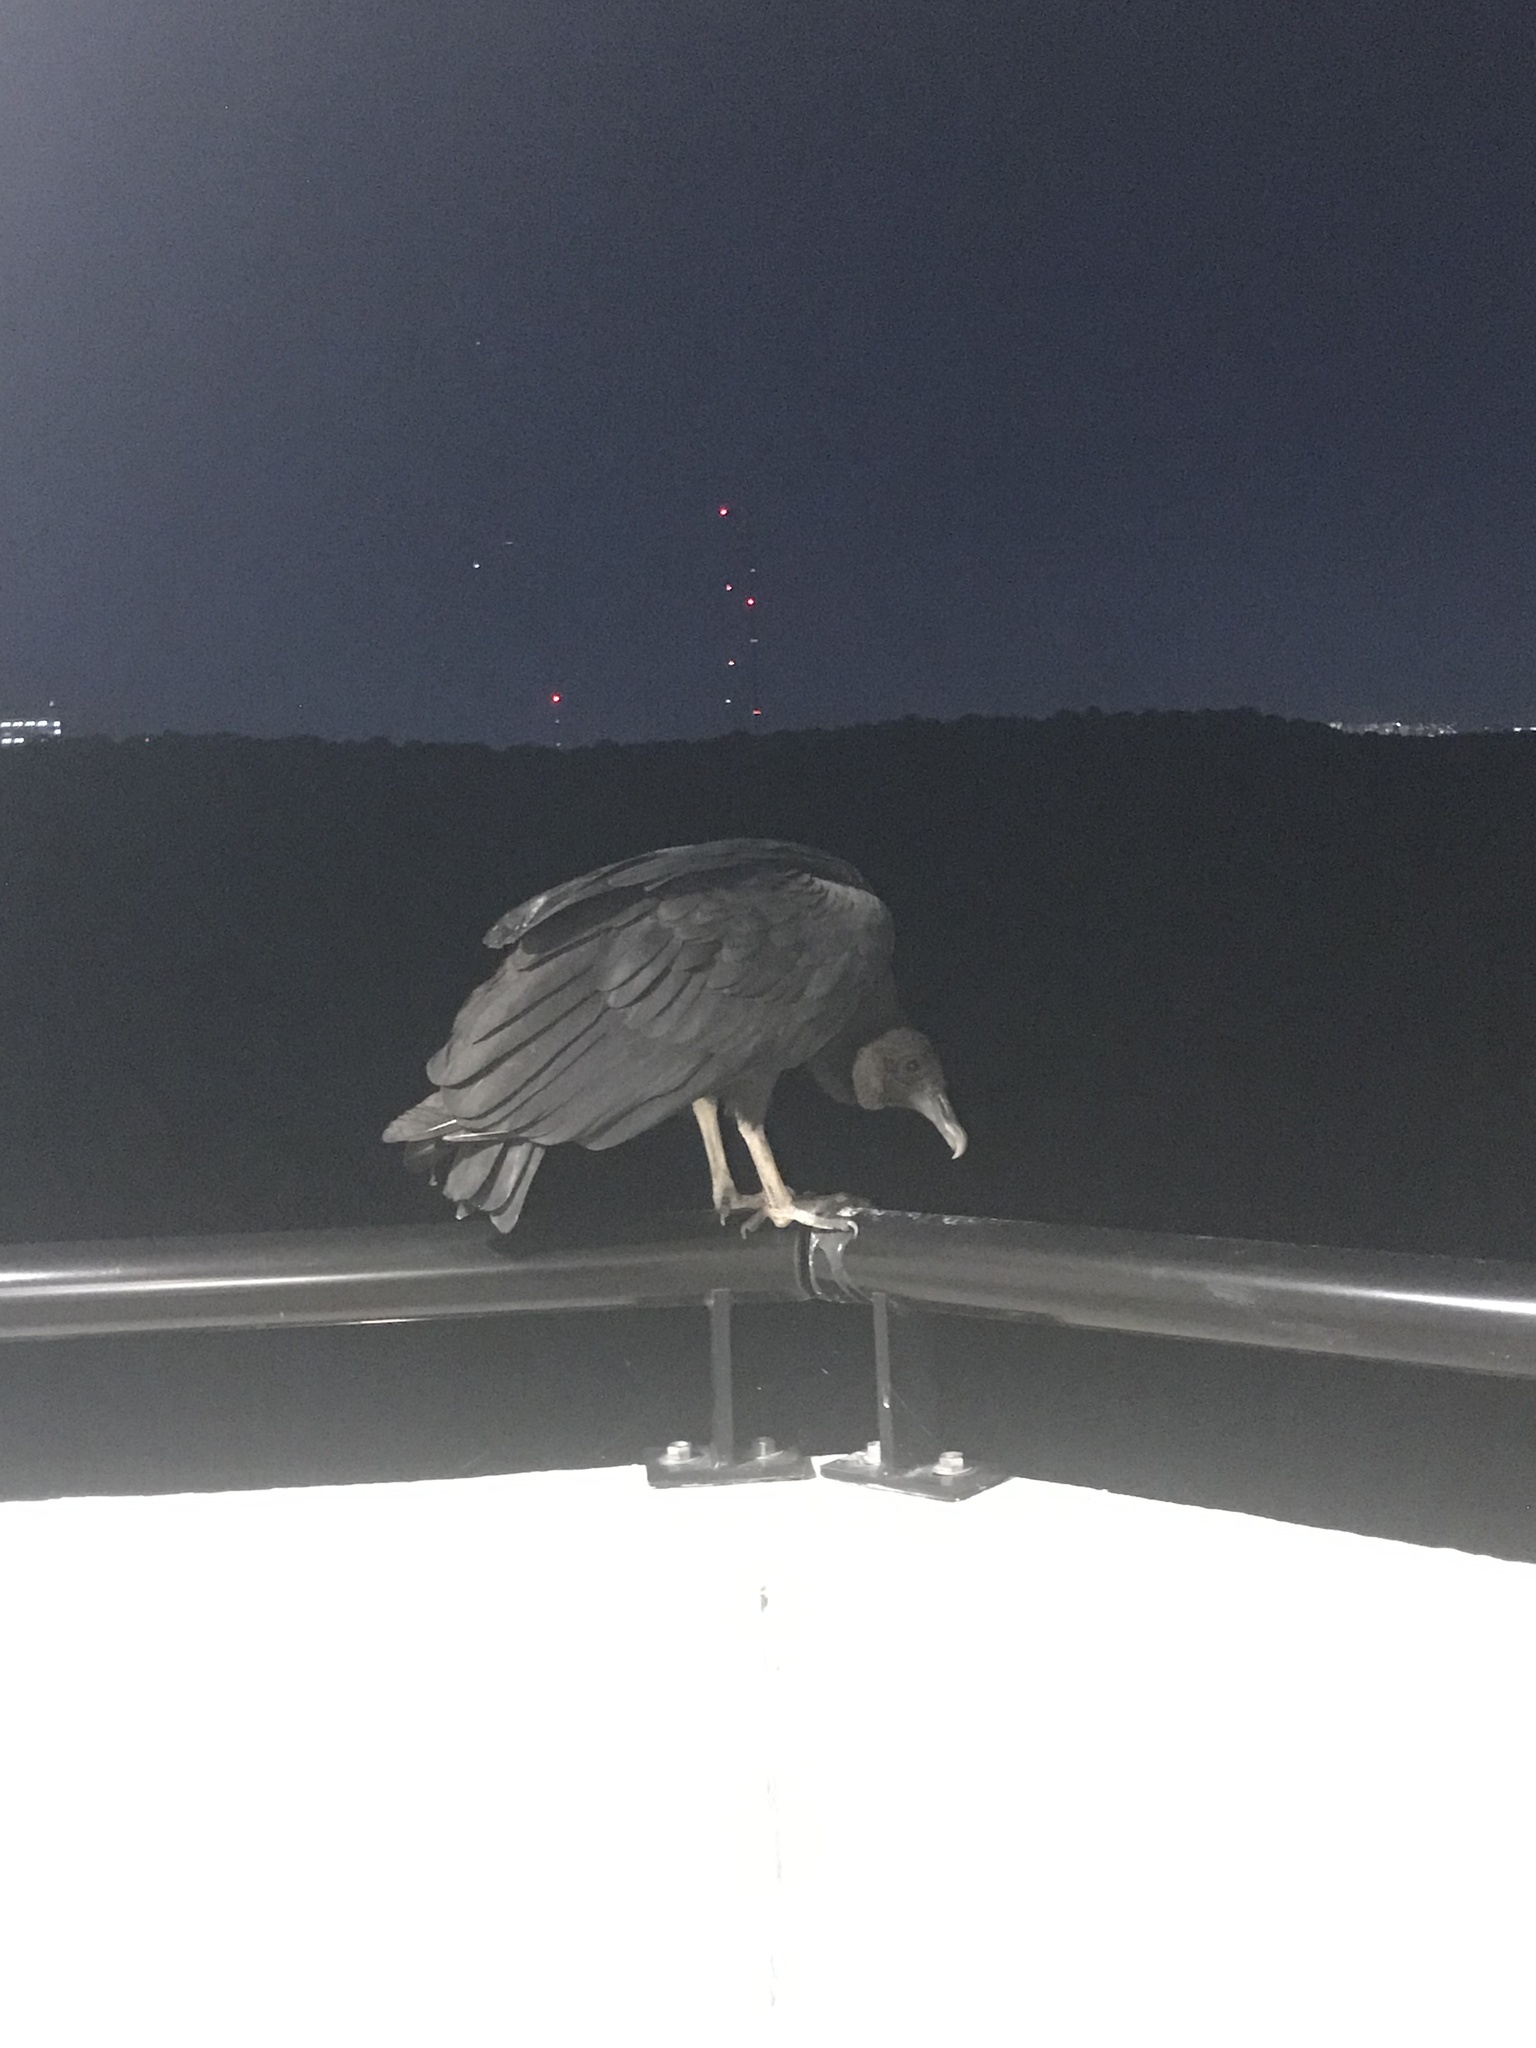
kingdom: Animalia
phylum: Chordata
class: Aves
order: Accipitriformes
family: Cathartidae
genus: Coragyps
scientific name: Coragyps atratus
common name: Black vulture
